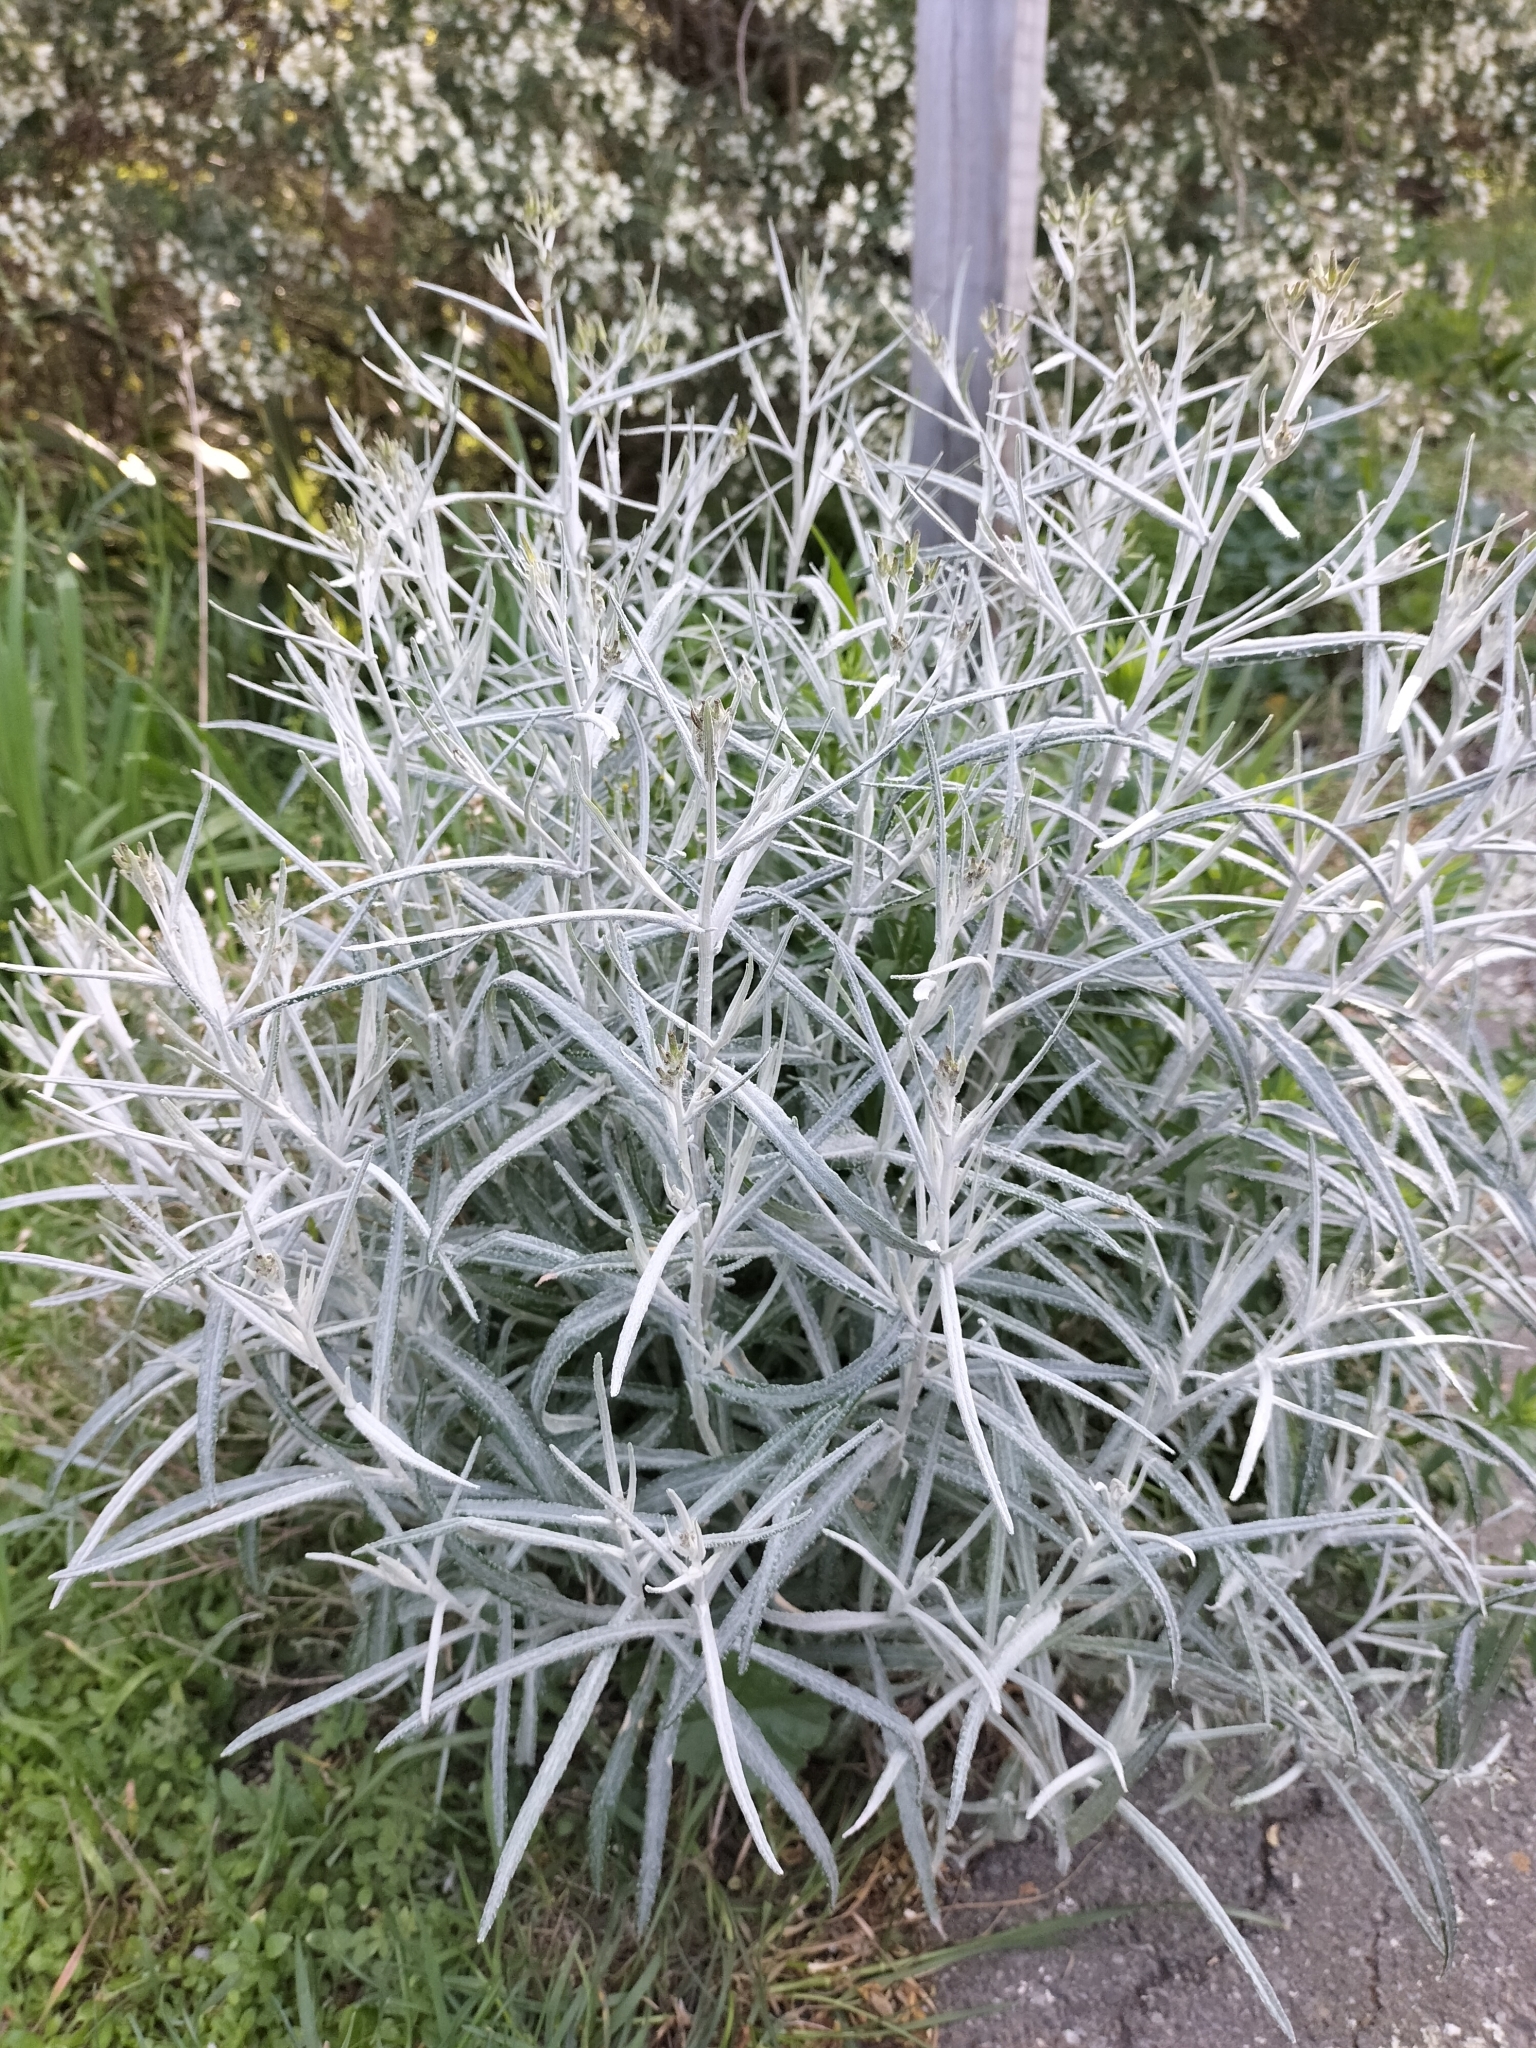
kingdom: Plantae
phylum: Tracheophyta
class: Magnoliopsida
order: Asterales
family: Asteraceae
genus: Senecio
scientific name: Senecio quadridentatus
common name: Cotton fireweed
